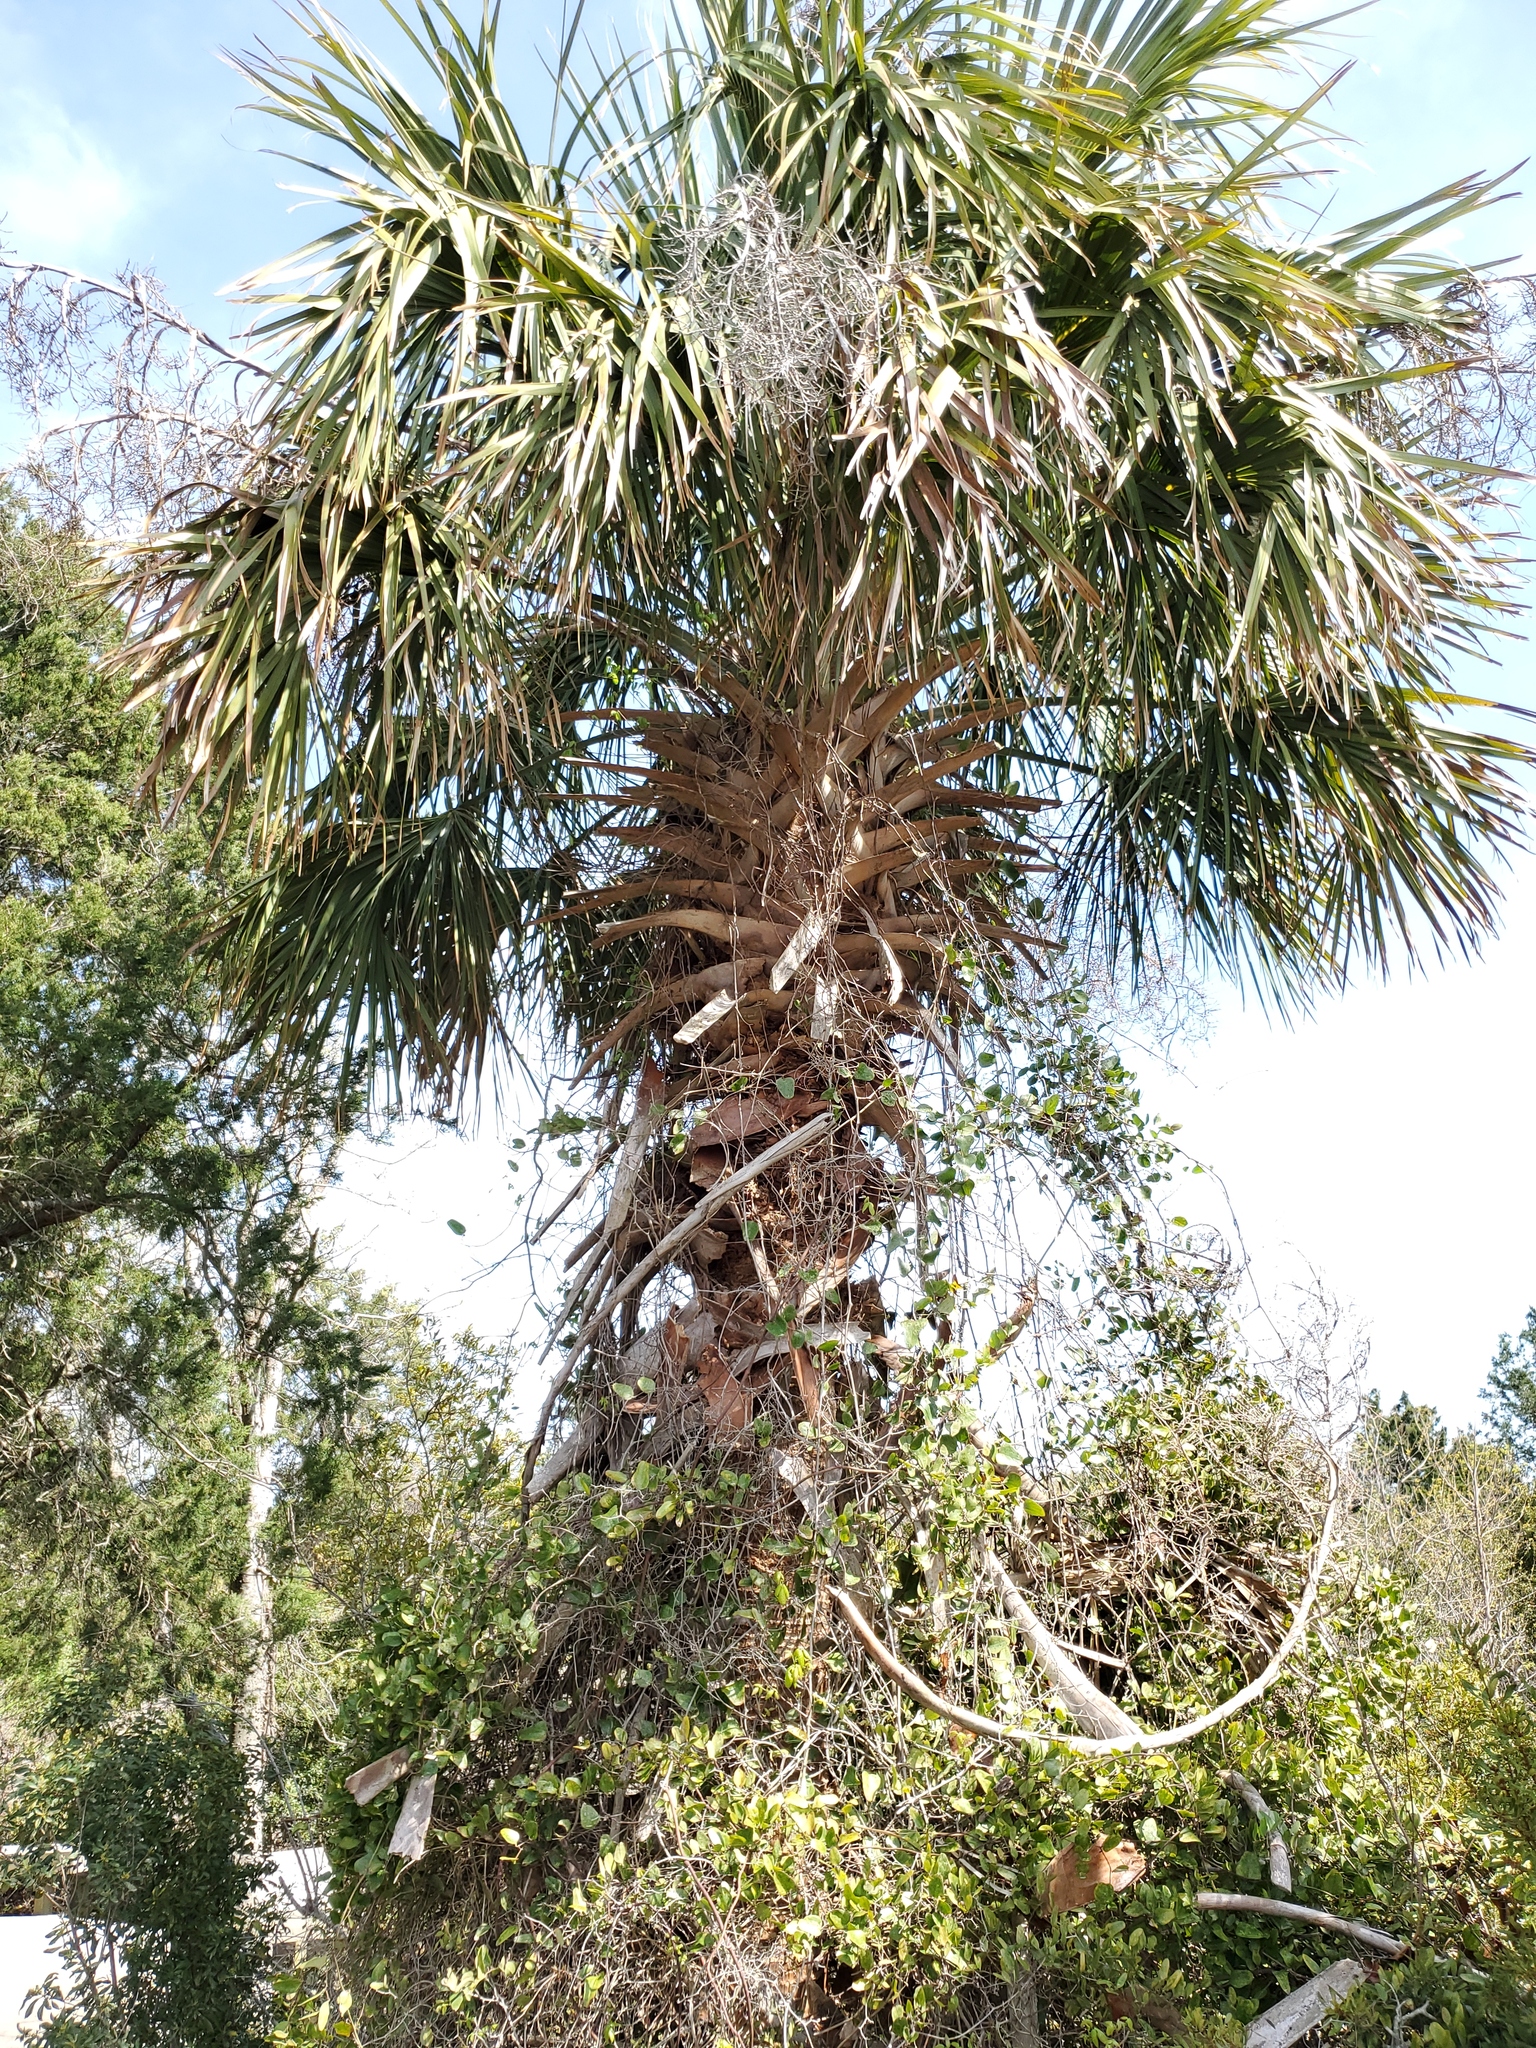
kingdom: Plantae
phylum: Tracheophyta
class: Liliopsida
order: Arecales
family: Arecaceae
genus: Sabal
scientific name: Sabal palmetto
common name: Blue palmetto
